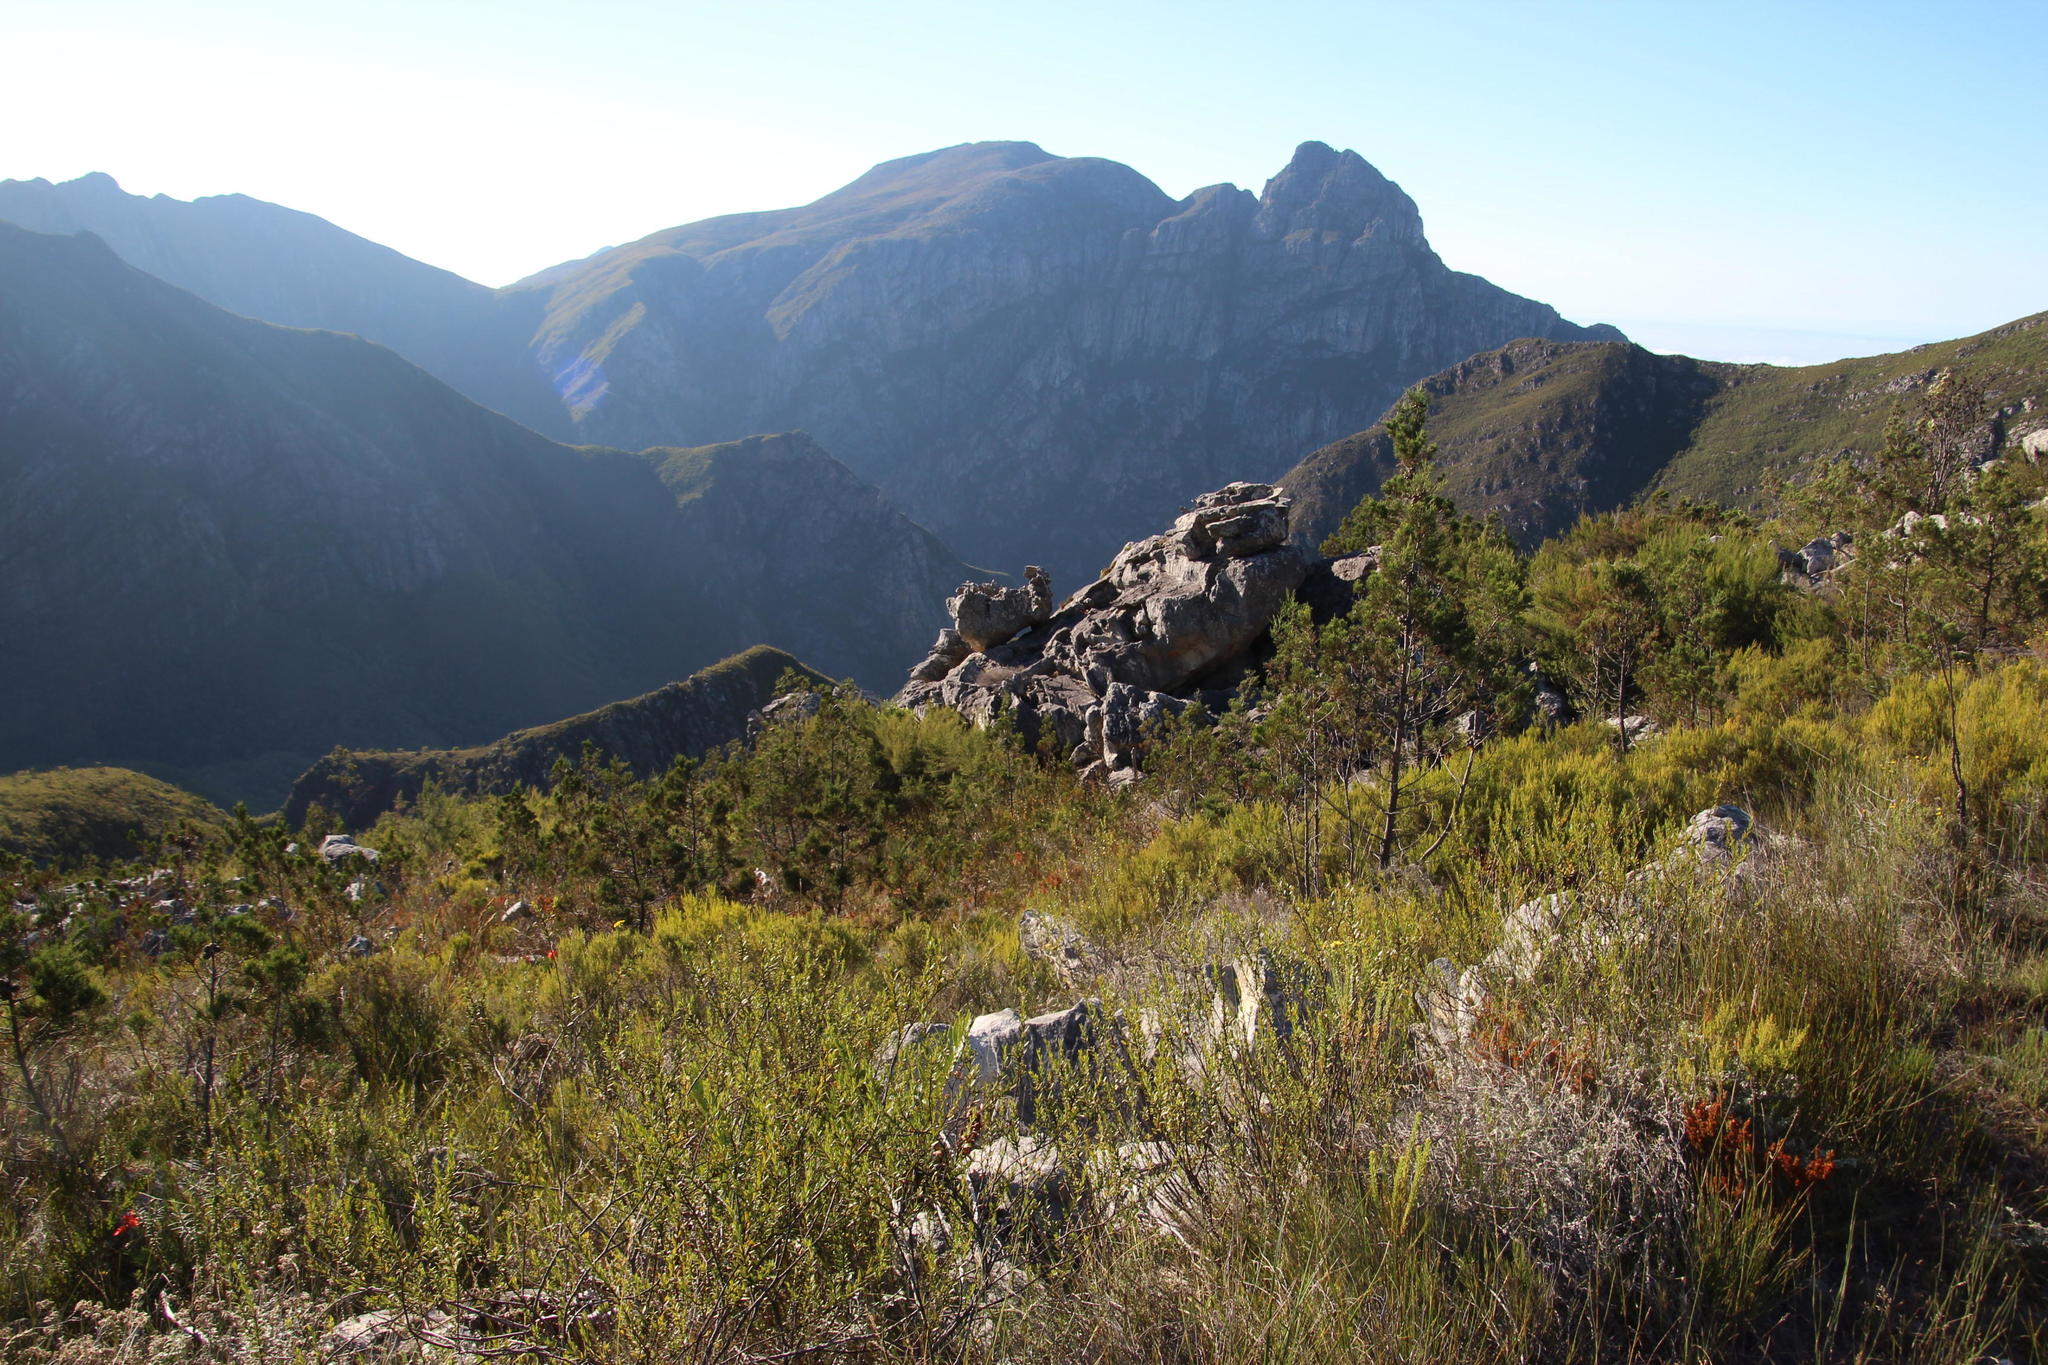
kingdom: Plantae
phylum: Tracheophyta
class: Pinopsida
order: Pinales
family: Cupressaceae
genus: Widdringtonia
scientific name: Widdringtonia nodiflora
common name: Cape cypress
